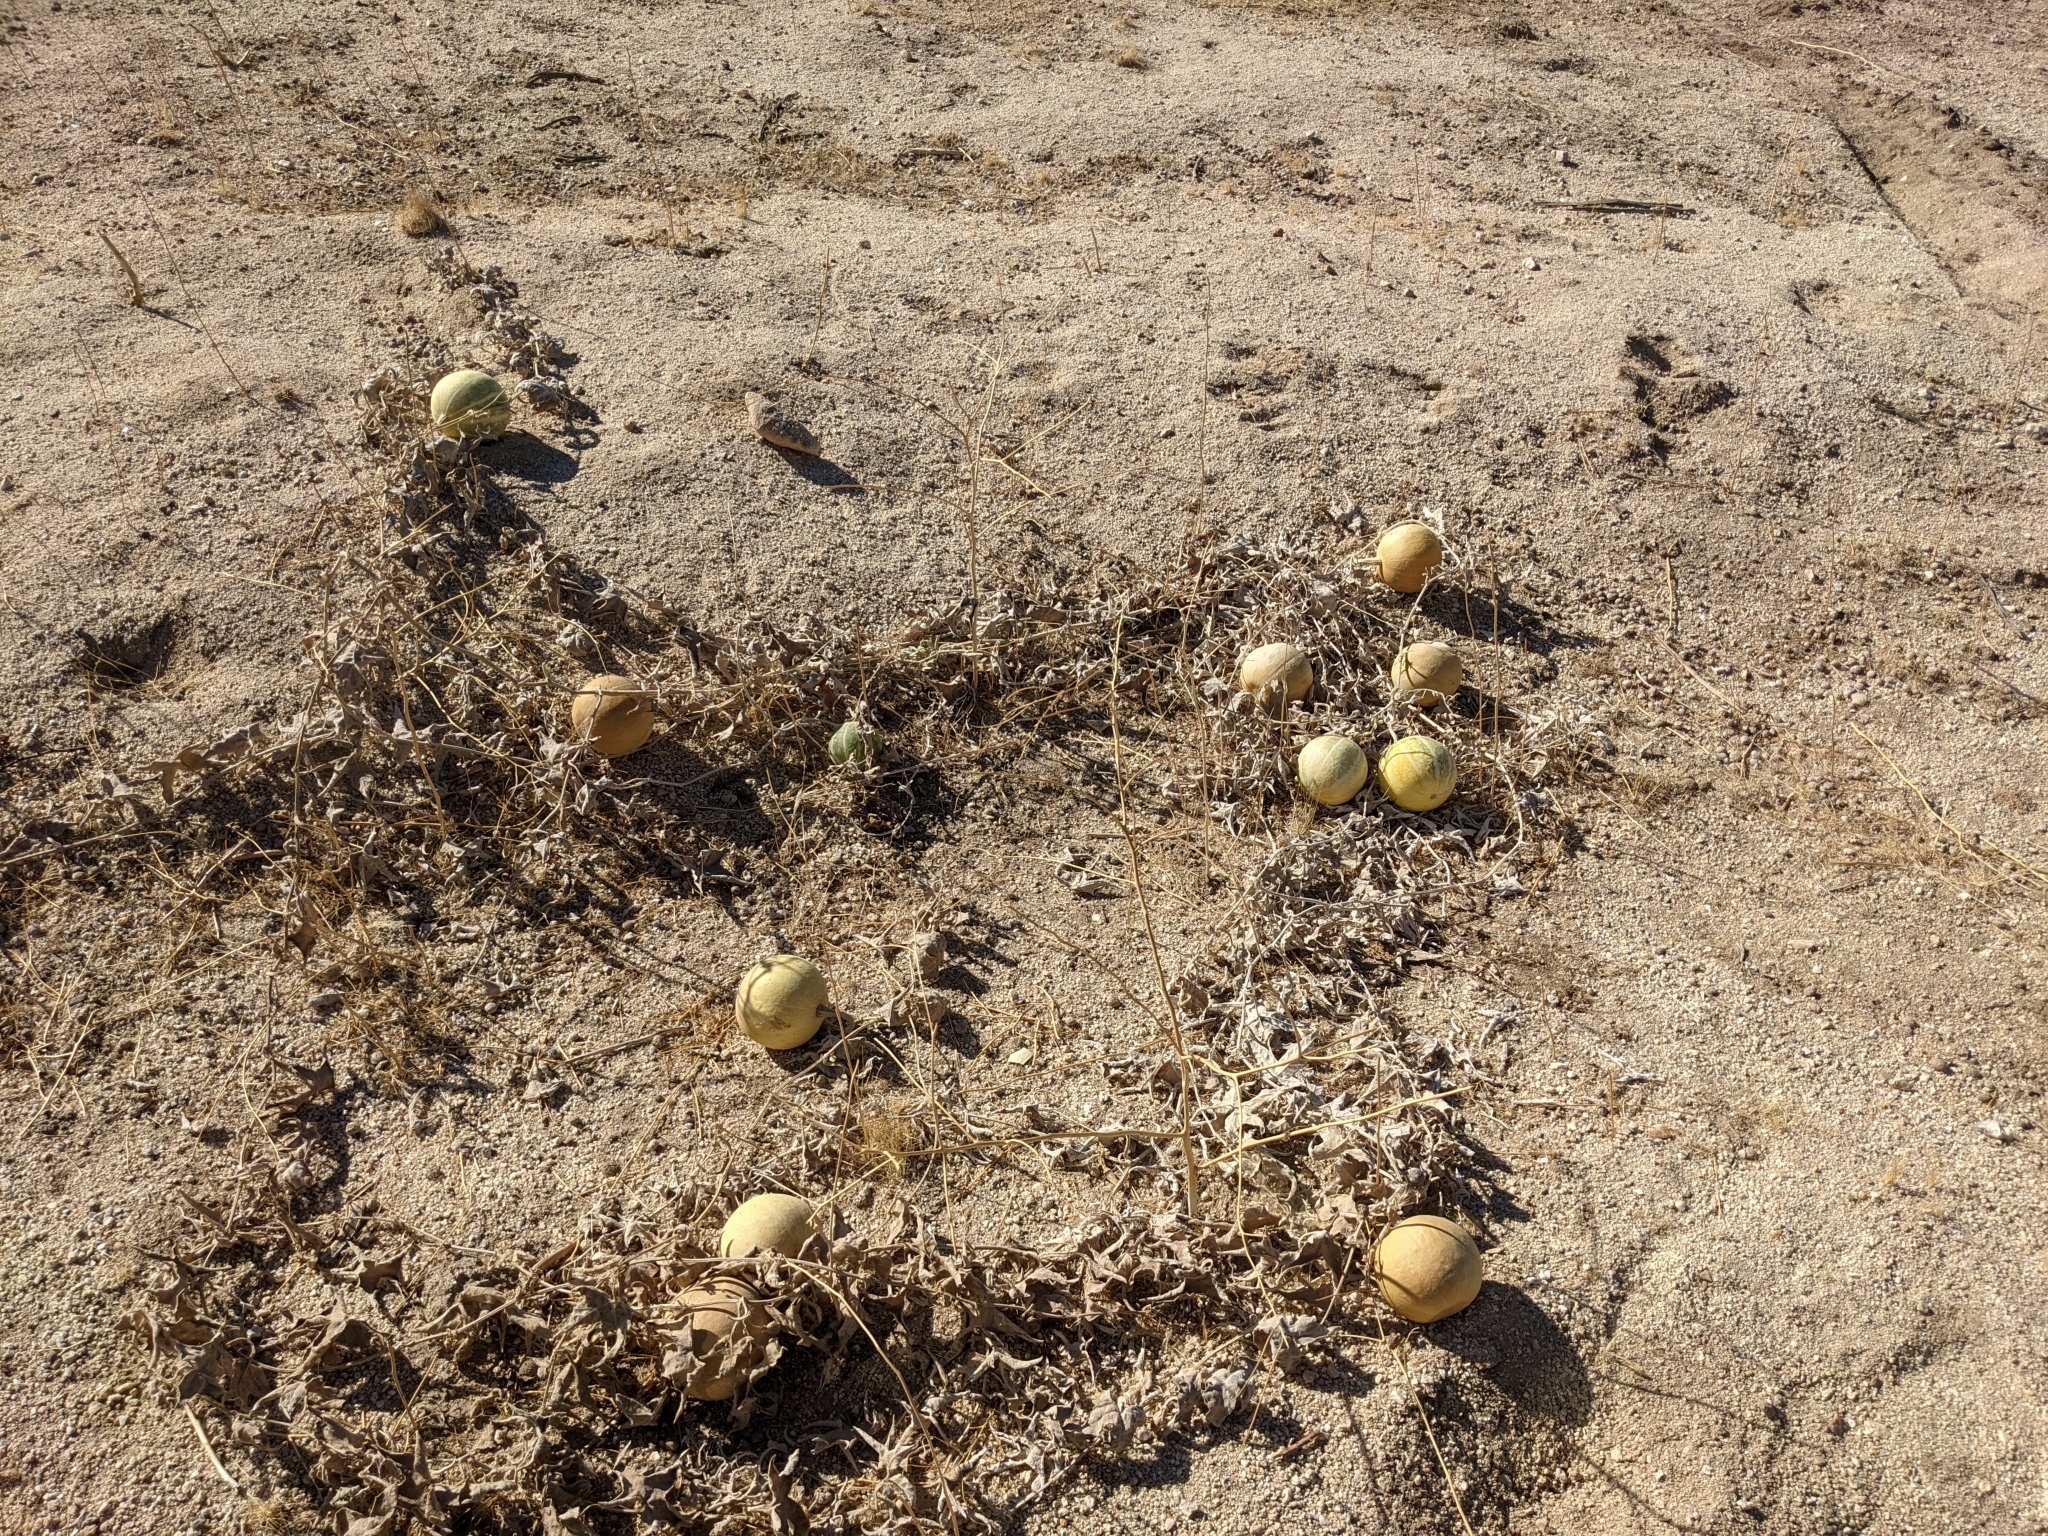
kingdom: Plantae
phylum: Tracheophyta
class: Magnoliopsida
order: Cucurbitales
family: Cucurbitaceae
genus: Cucurbita
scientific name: Cucurbita palmata
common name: Coyote-melon
